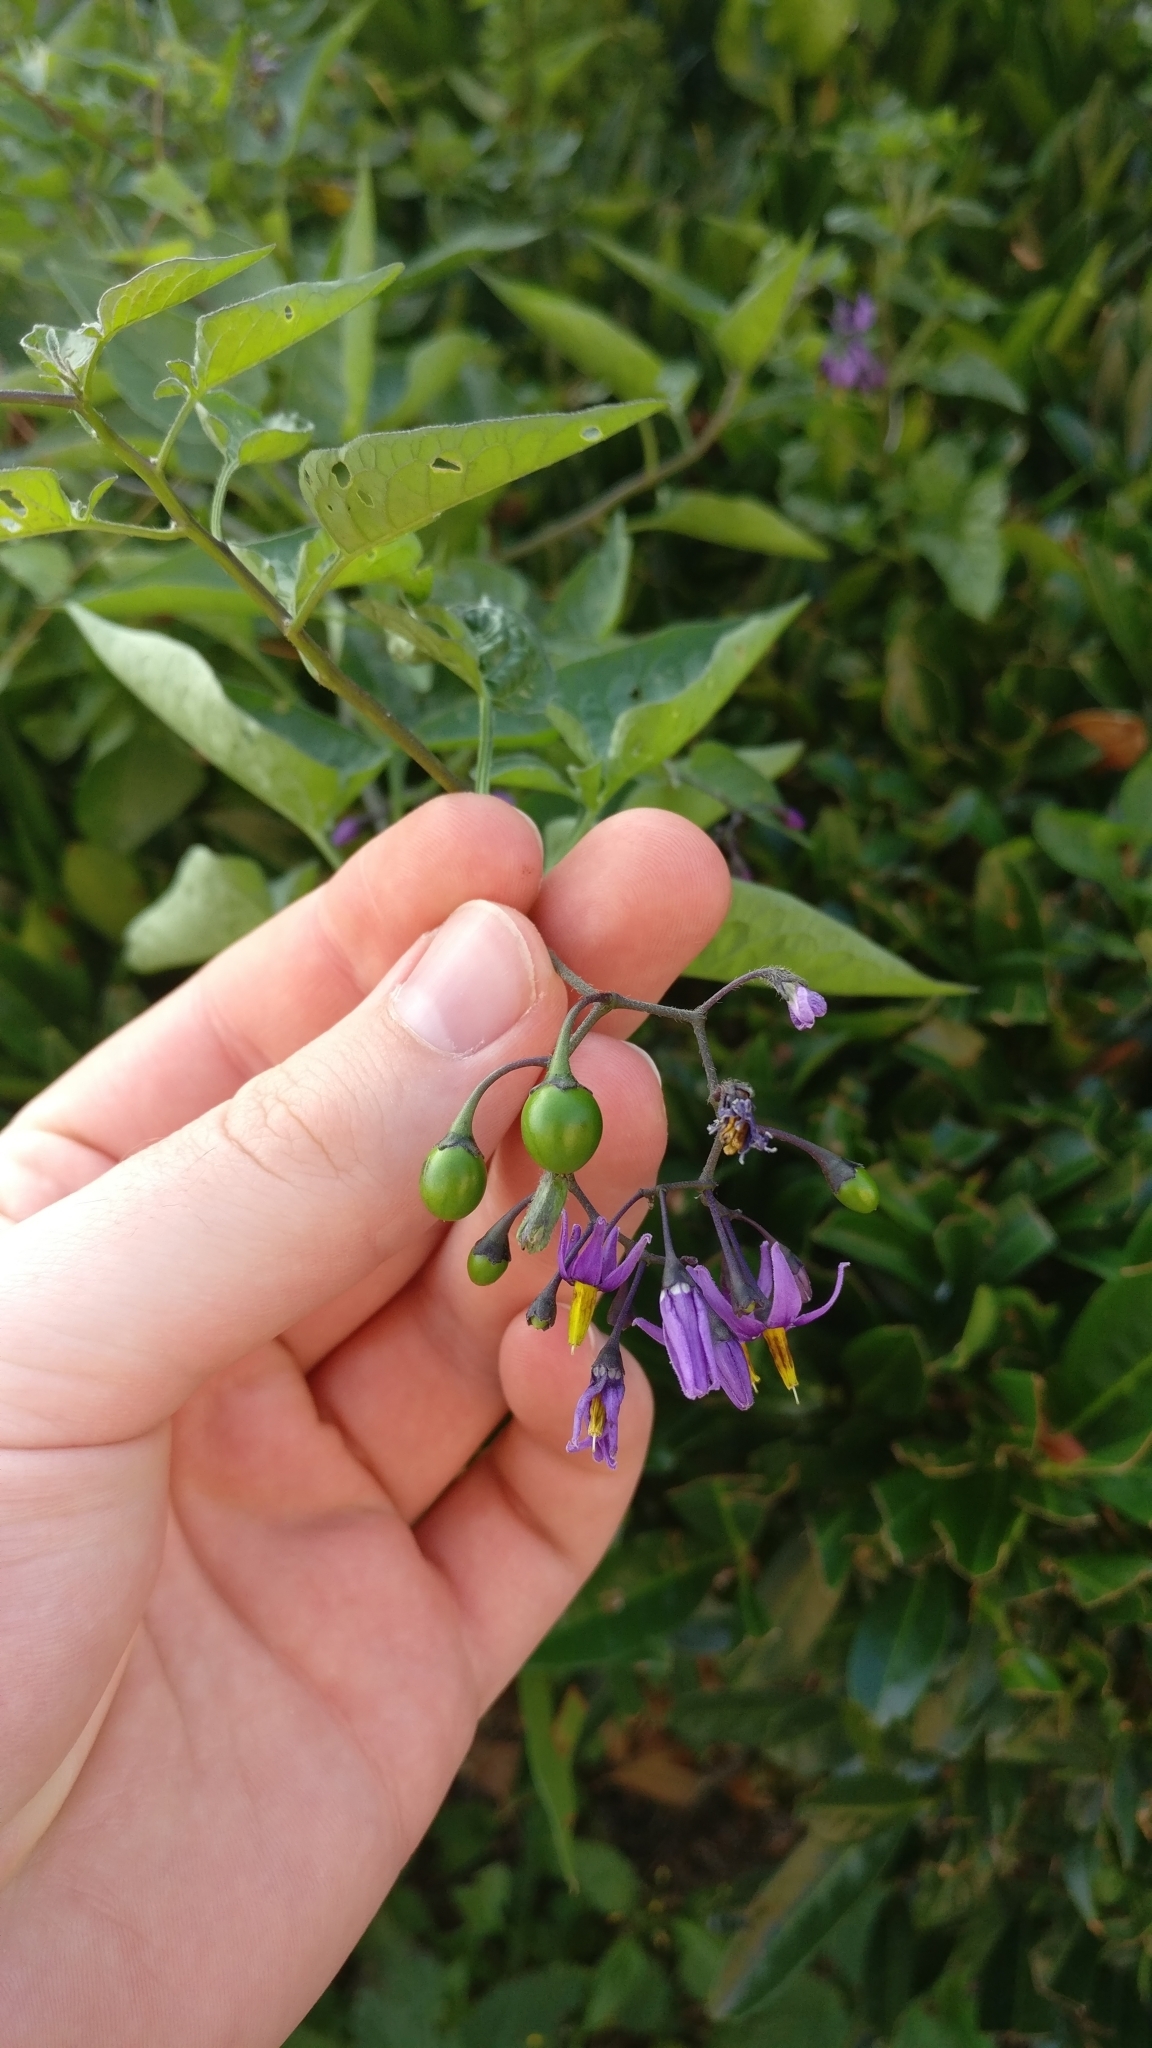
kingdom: Plantae
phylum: Tracheophyta
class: Magnoliopsida
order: Solanales
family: Solanaceae
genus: Solanum
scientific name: Solanum dulcamara
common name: Climbing nightshade
